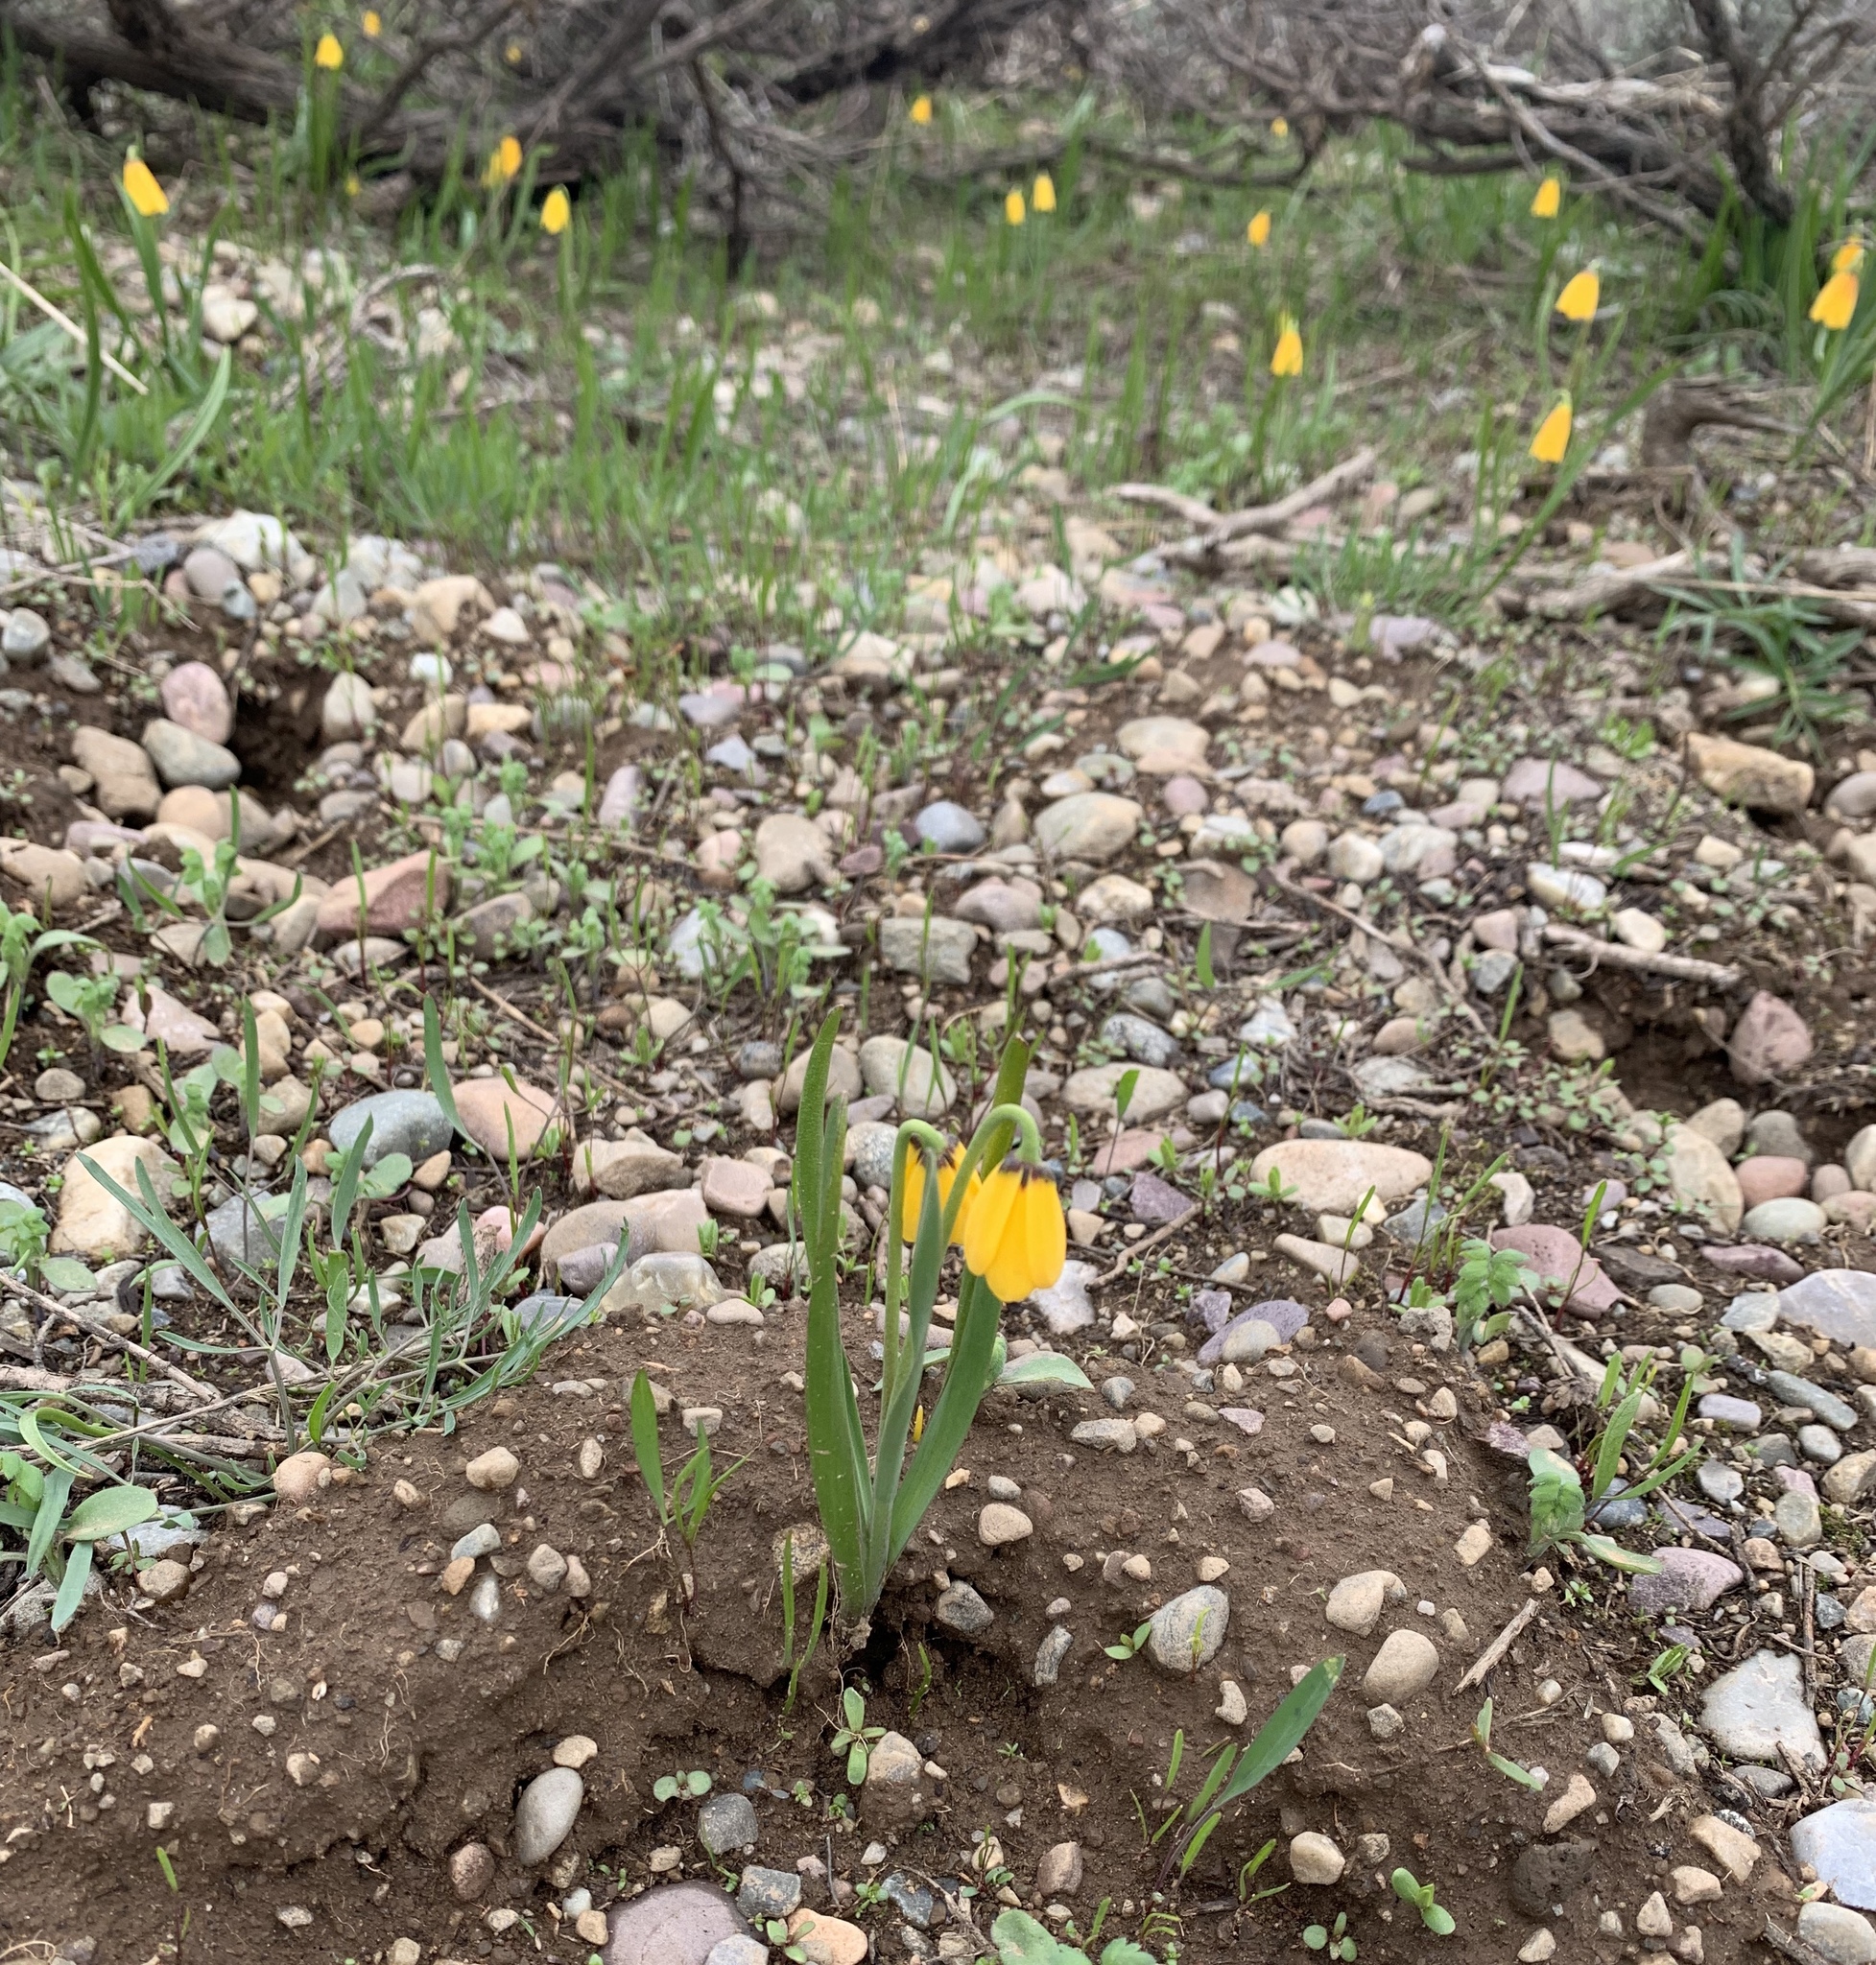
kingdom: Plantae
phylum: Tracheophyta
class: Liliopsida
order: Liliales
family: Liliaceae
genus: Fritillaria
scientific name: Fritillaria pudica
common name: Yellow fritillary
